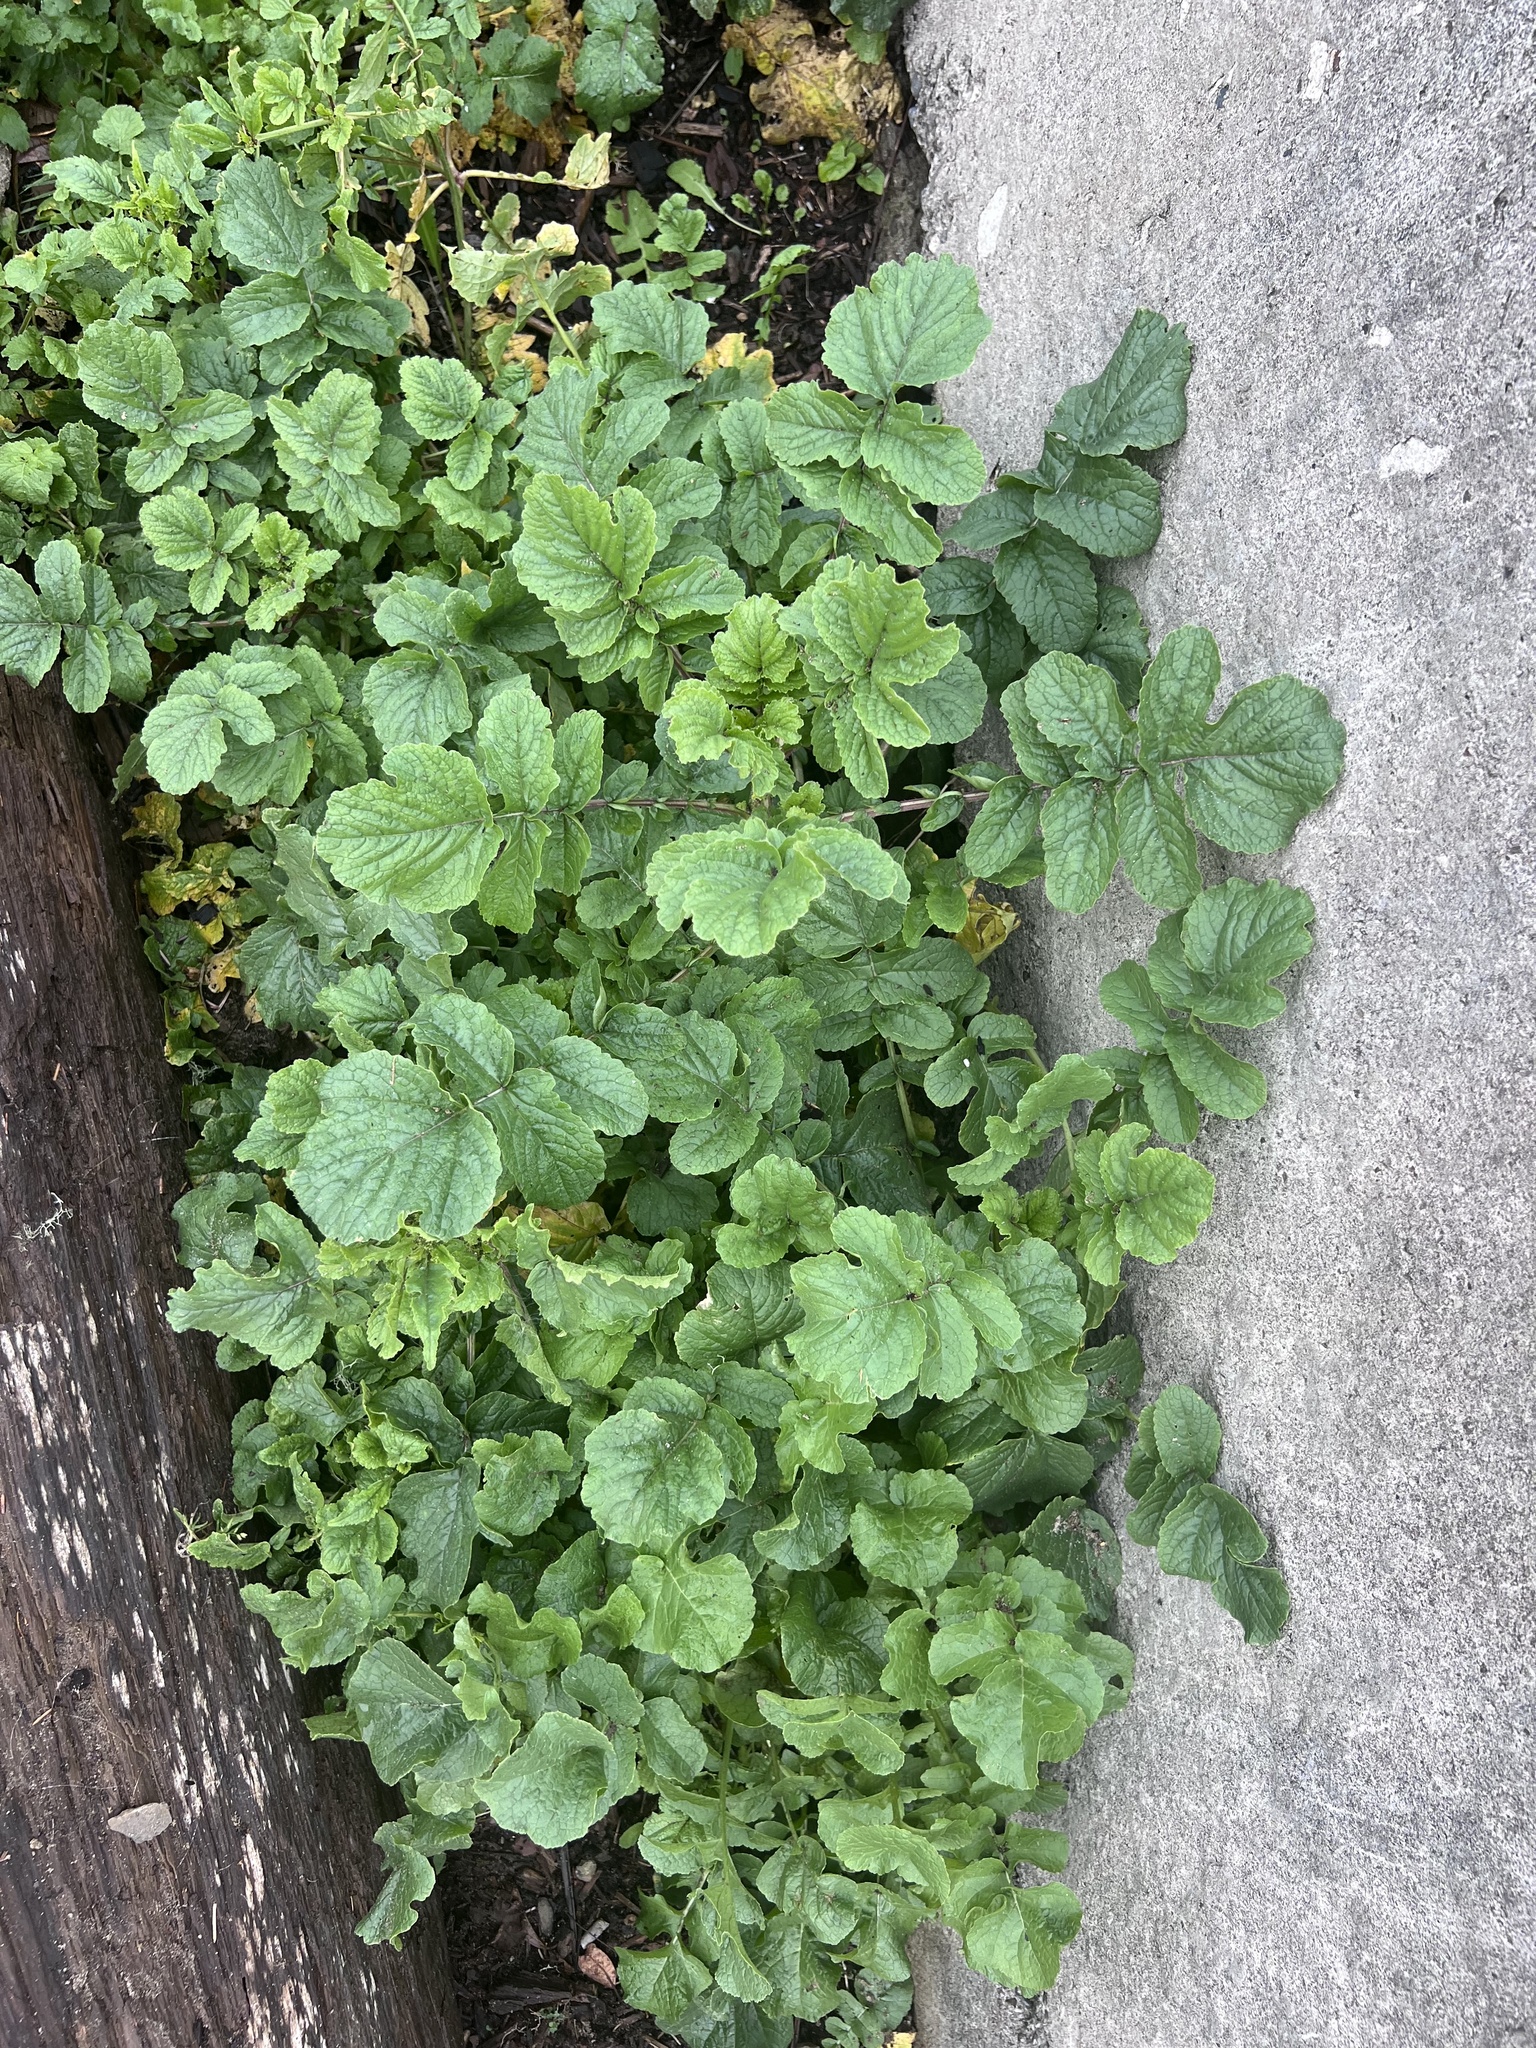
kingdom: Plantae
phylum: Tracheophyta
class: Magnoliopsida
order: Brassicales
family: Brassicaceae
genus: Raphanus
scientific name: Raphanus raphanistrum
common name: Wild radish
